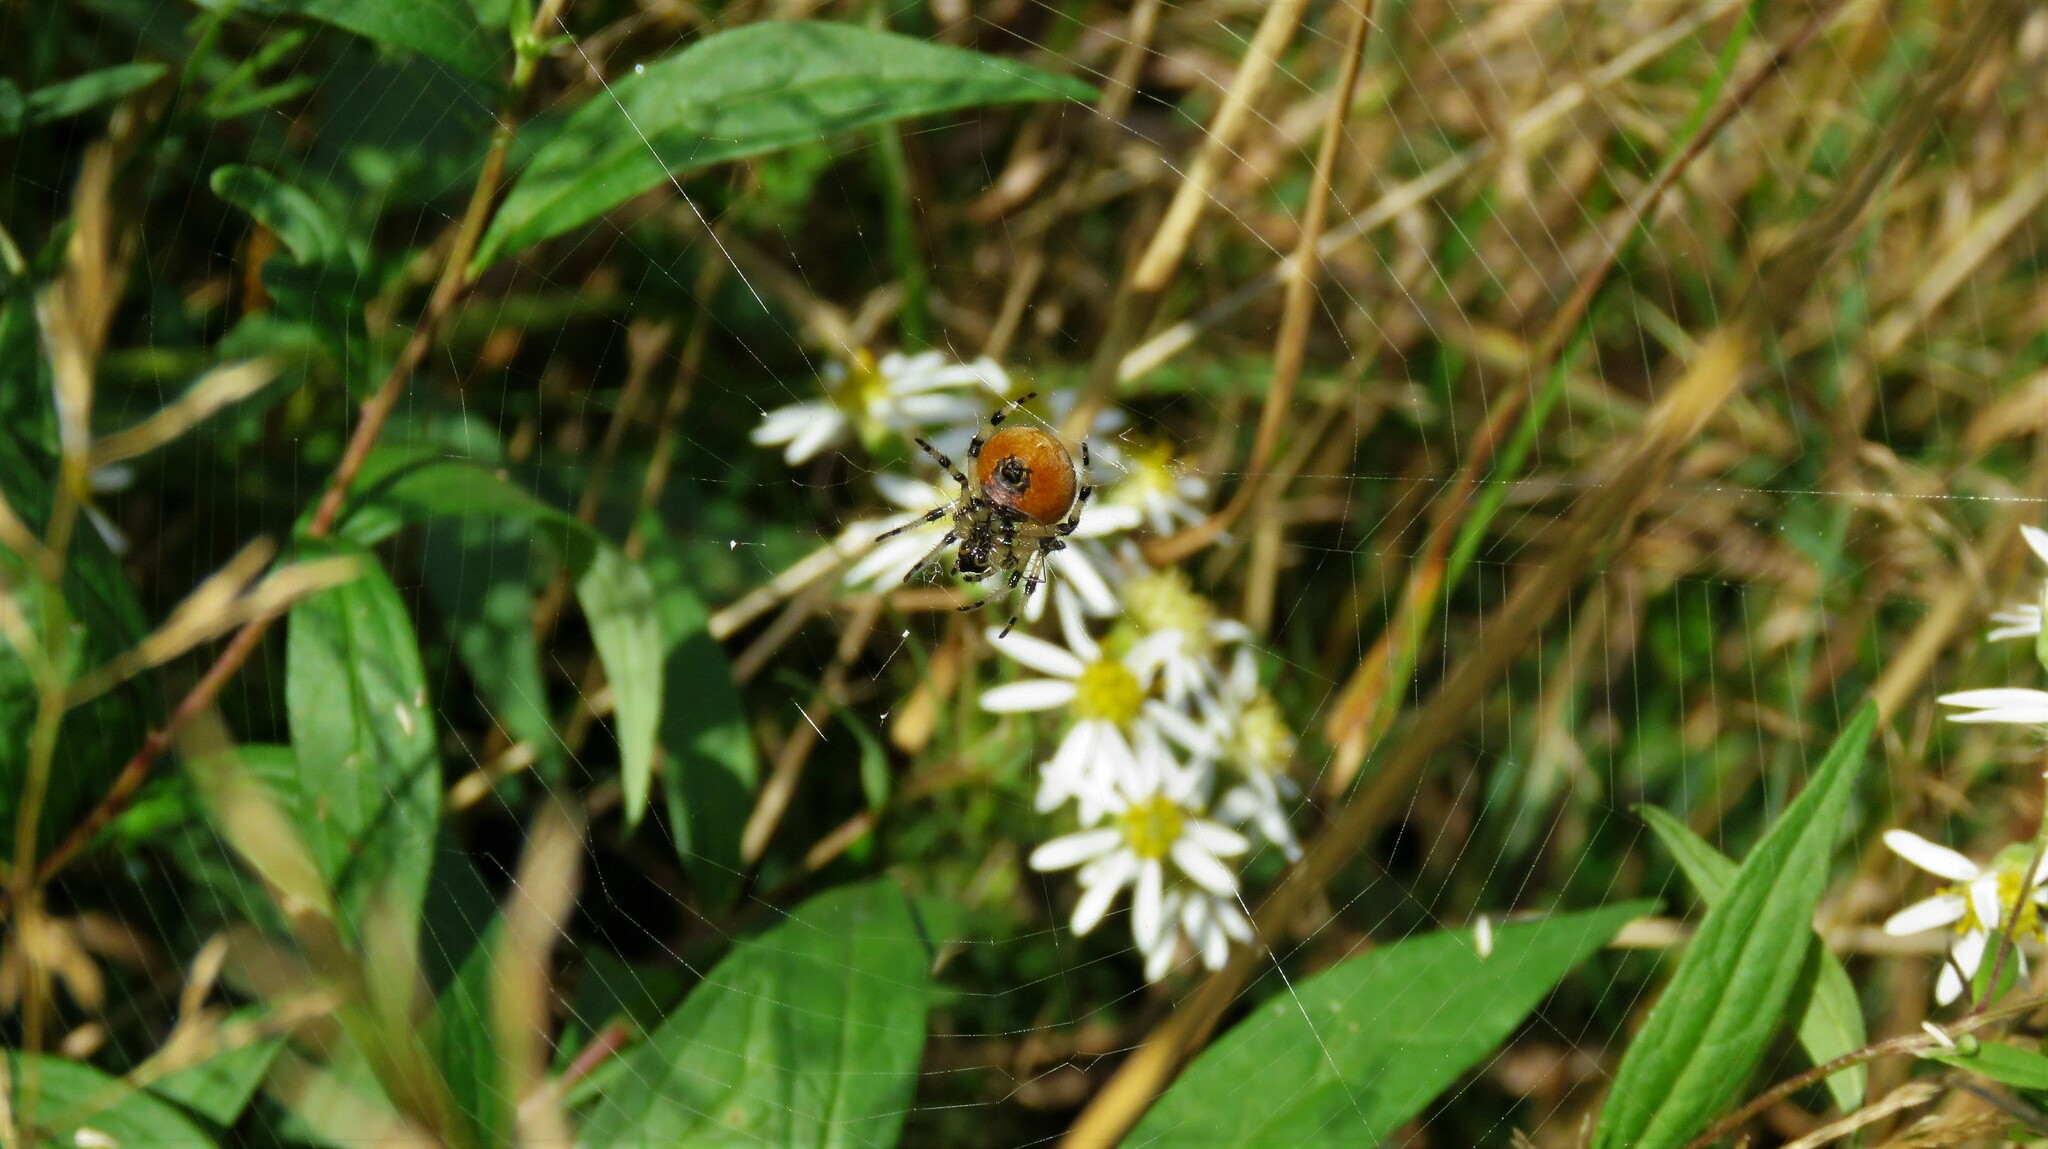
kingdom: Animalia
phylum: Arthropoda
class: Arachnida
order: Araneae
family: Araneidae
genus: Araneus
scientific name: Araneus trifolium
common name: Shamrock orbweaver
